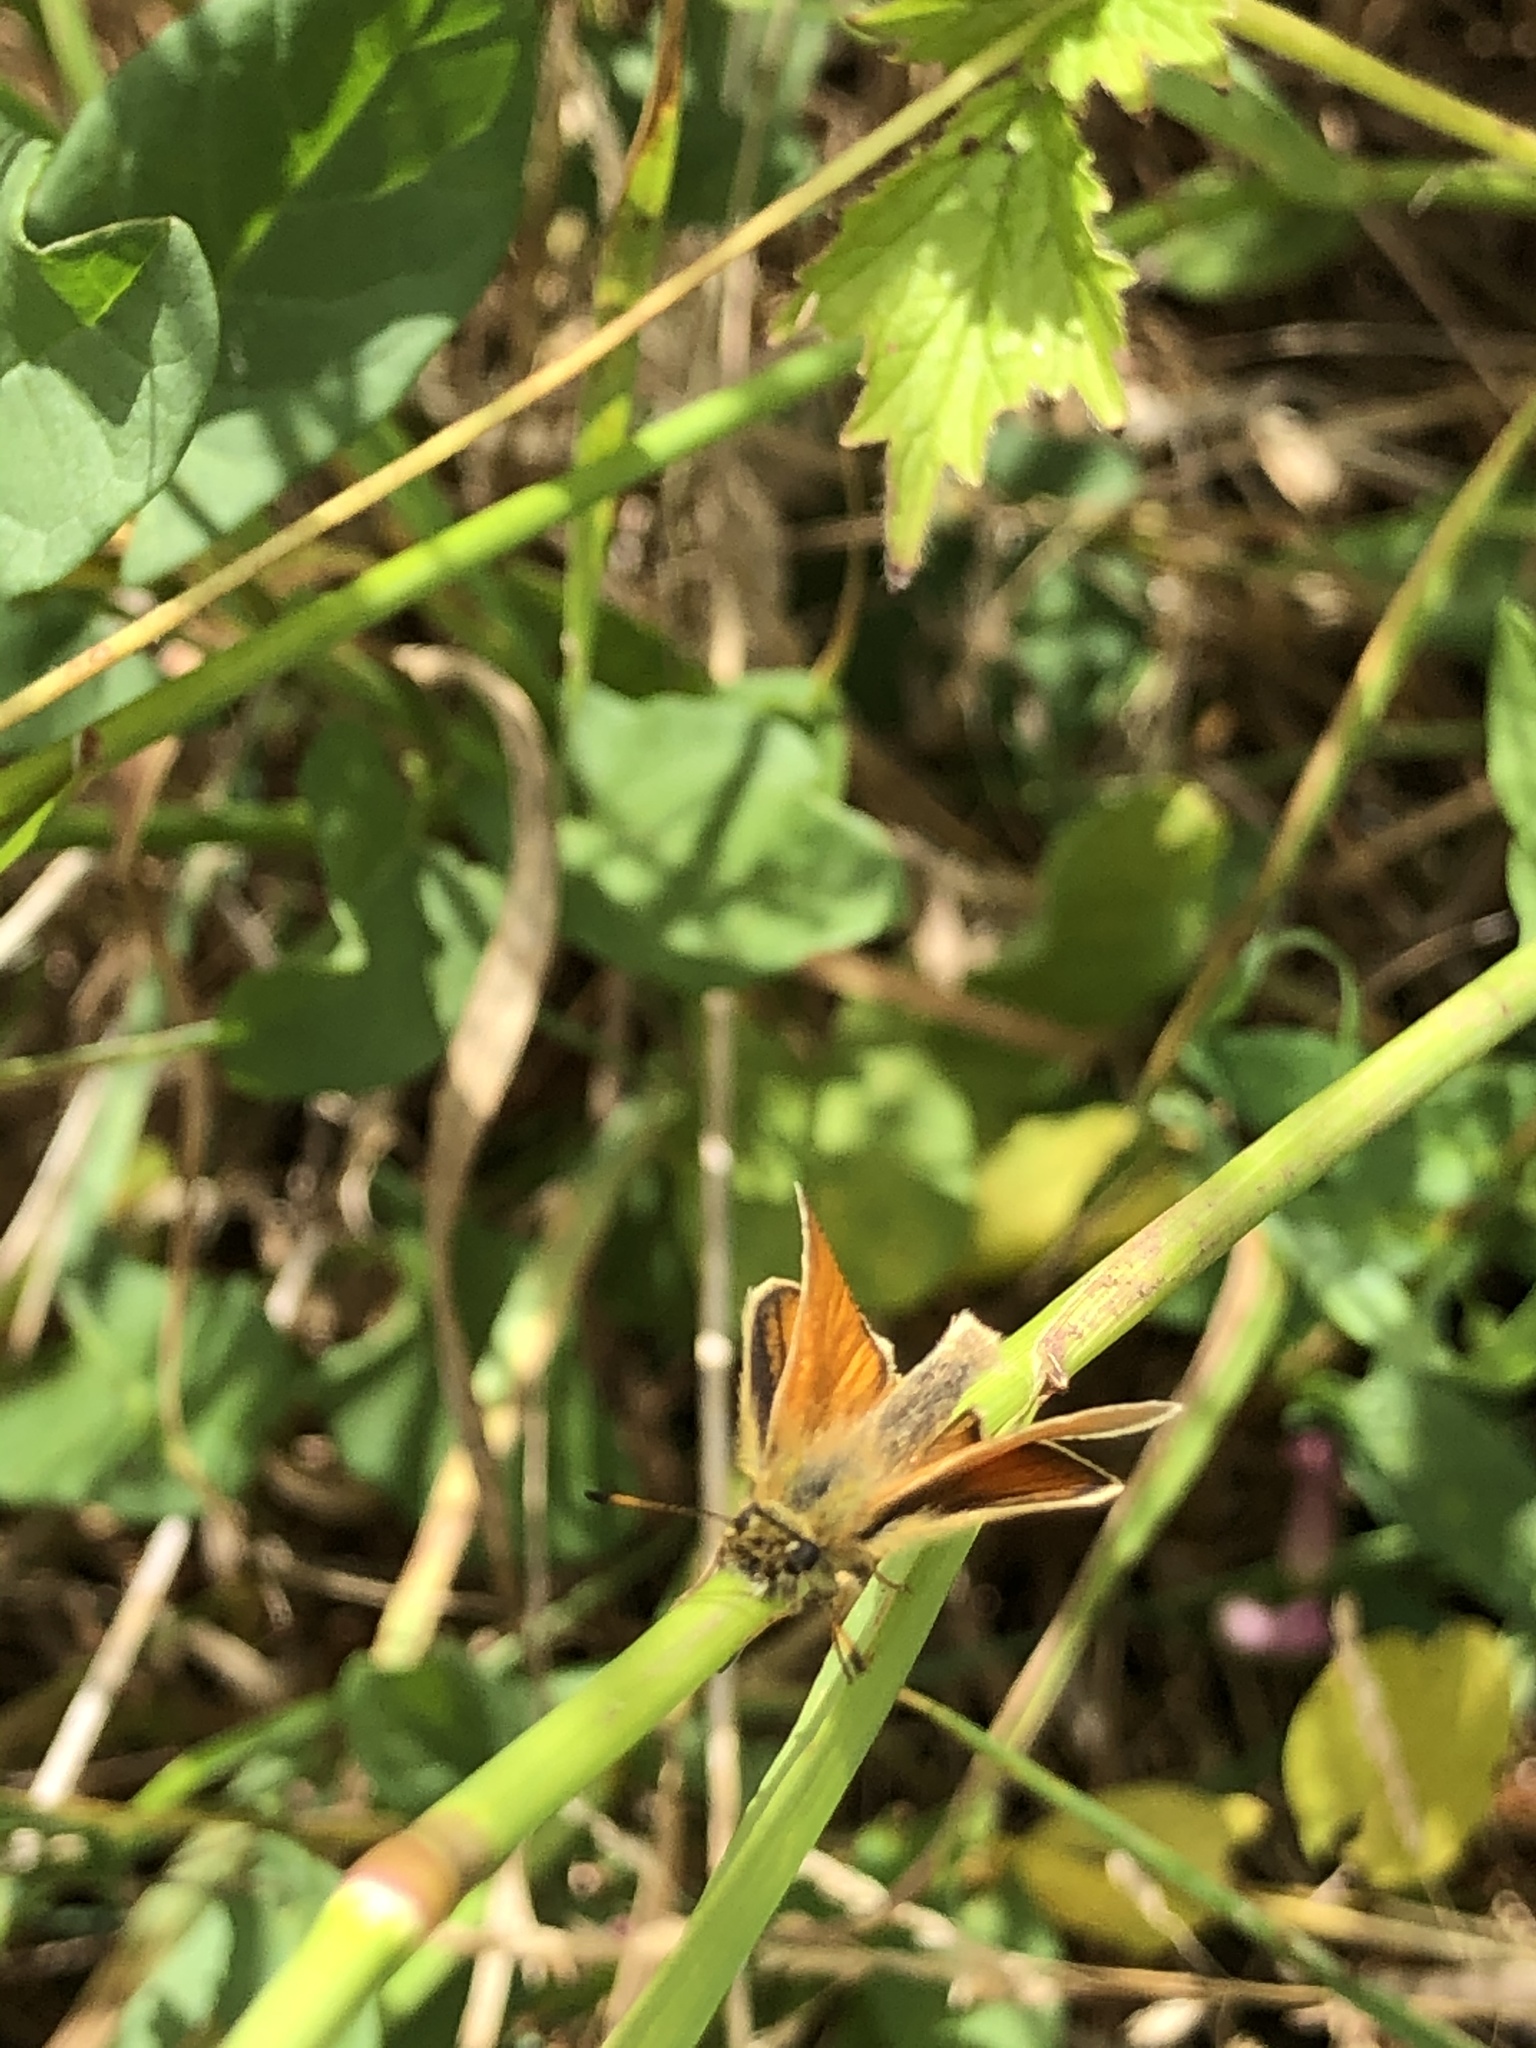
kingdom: Animalia
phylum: Arthropoda
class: Insecta
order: Lepidoptera
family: Hesperiidae
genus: Thymelicus
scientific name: Thymelicus lineola
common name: Essex skipper
